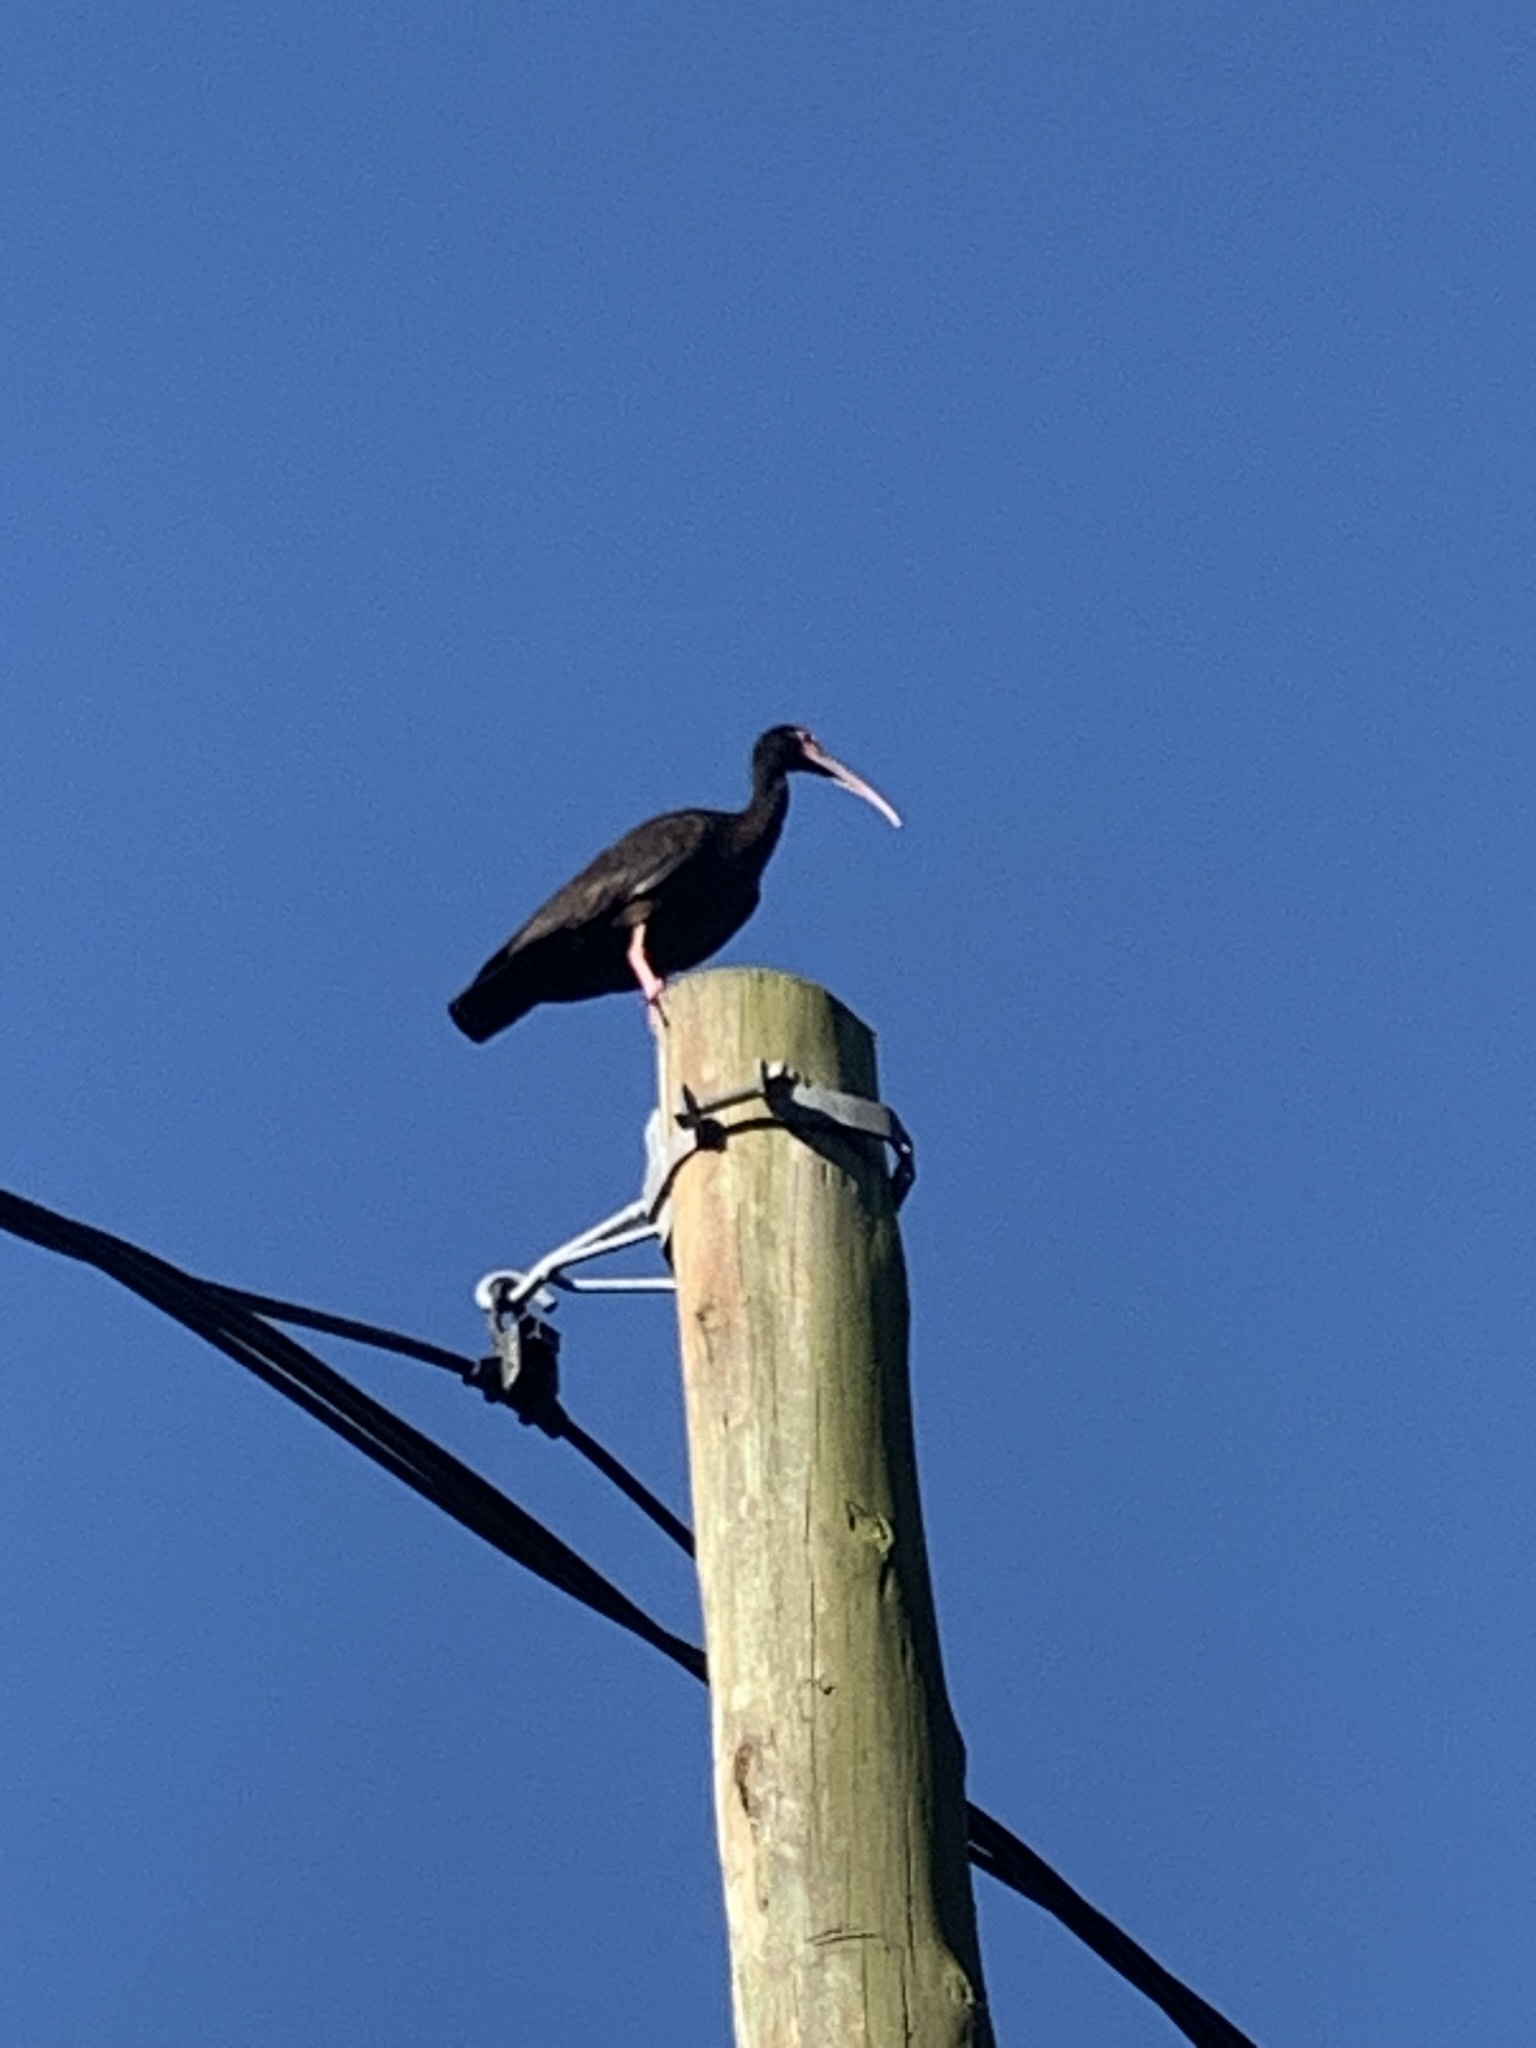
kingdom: Animalia
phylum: Chordata
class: Aves
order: Pelecaniformes
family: Threskiornithidae
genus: Phimosus
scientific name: Phimosus infuscatus
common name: Bare-faced ibis
